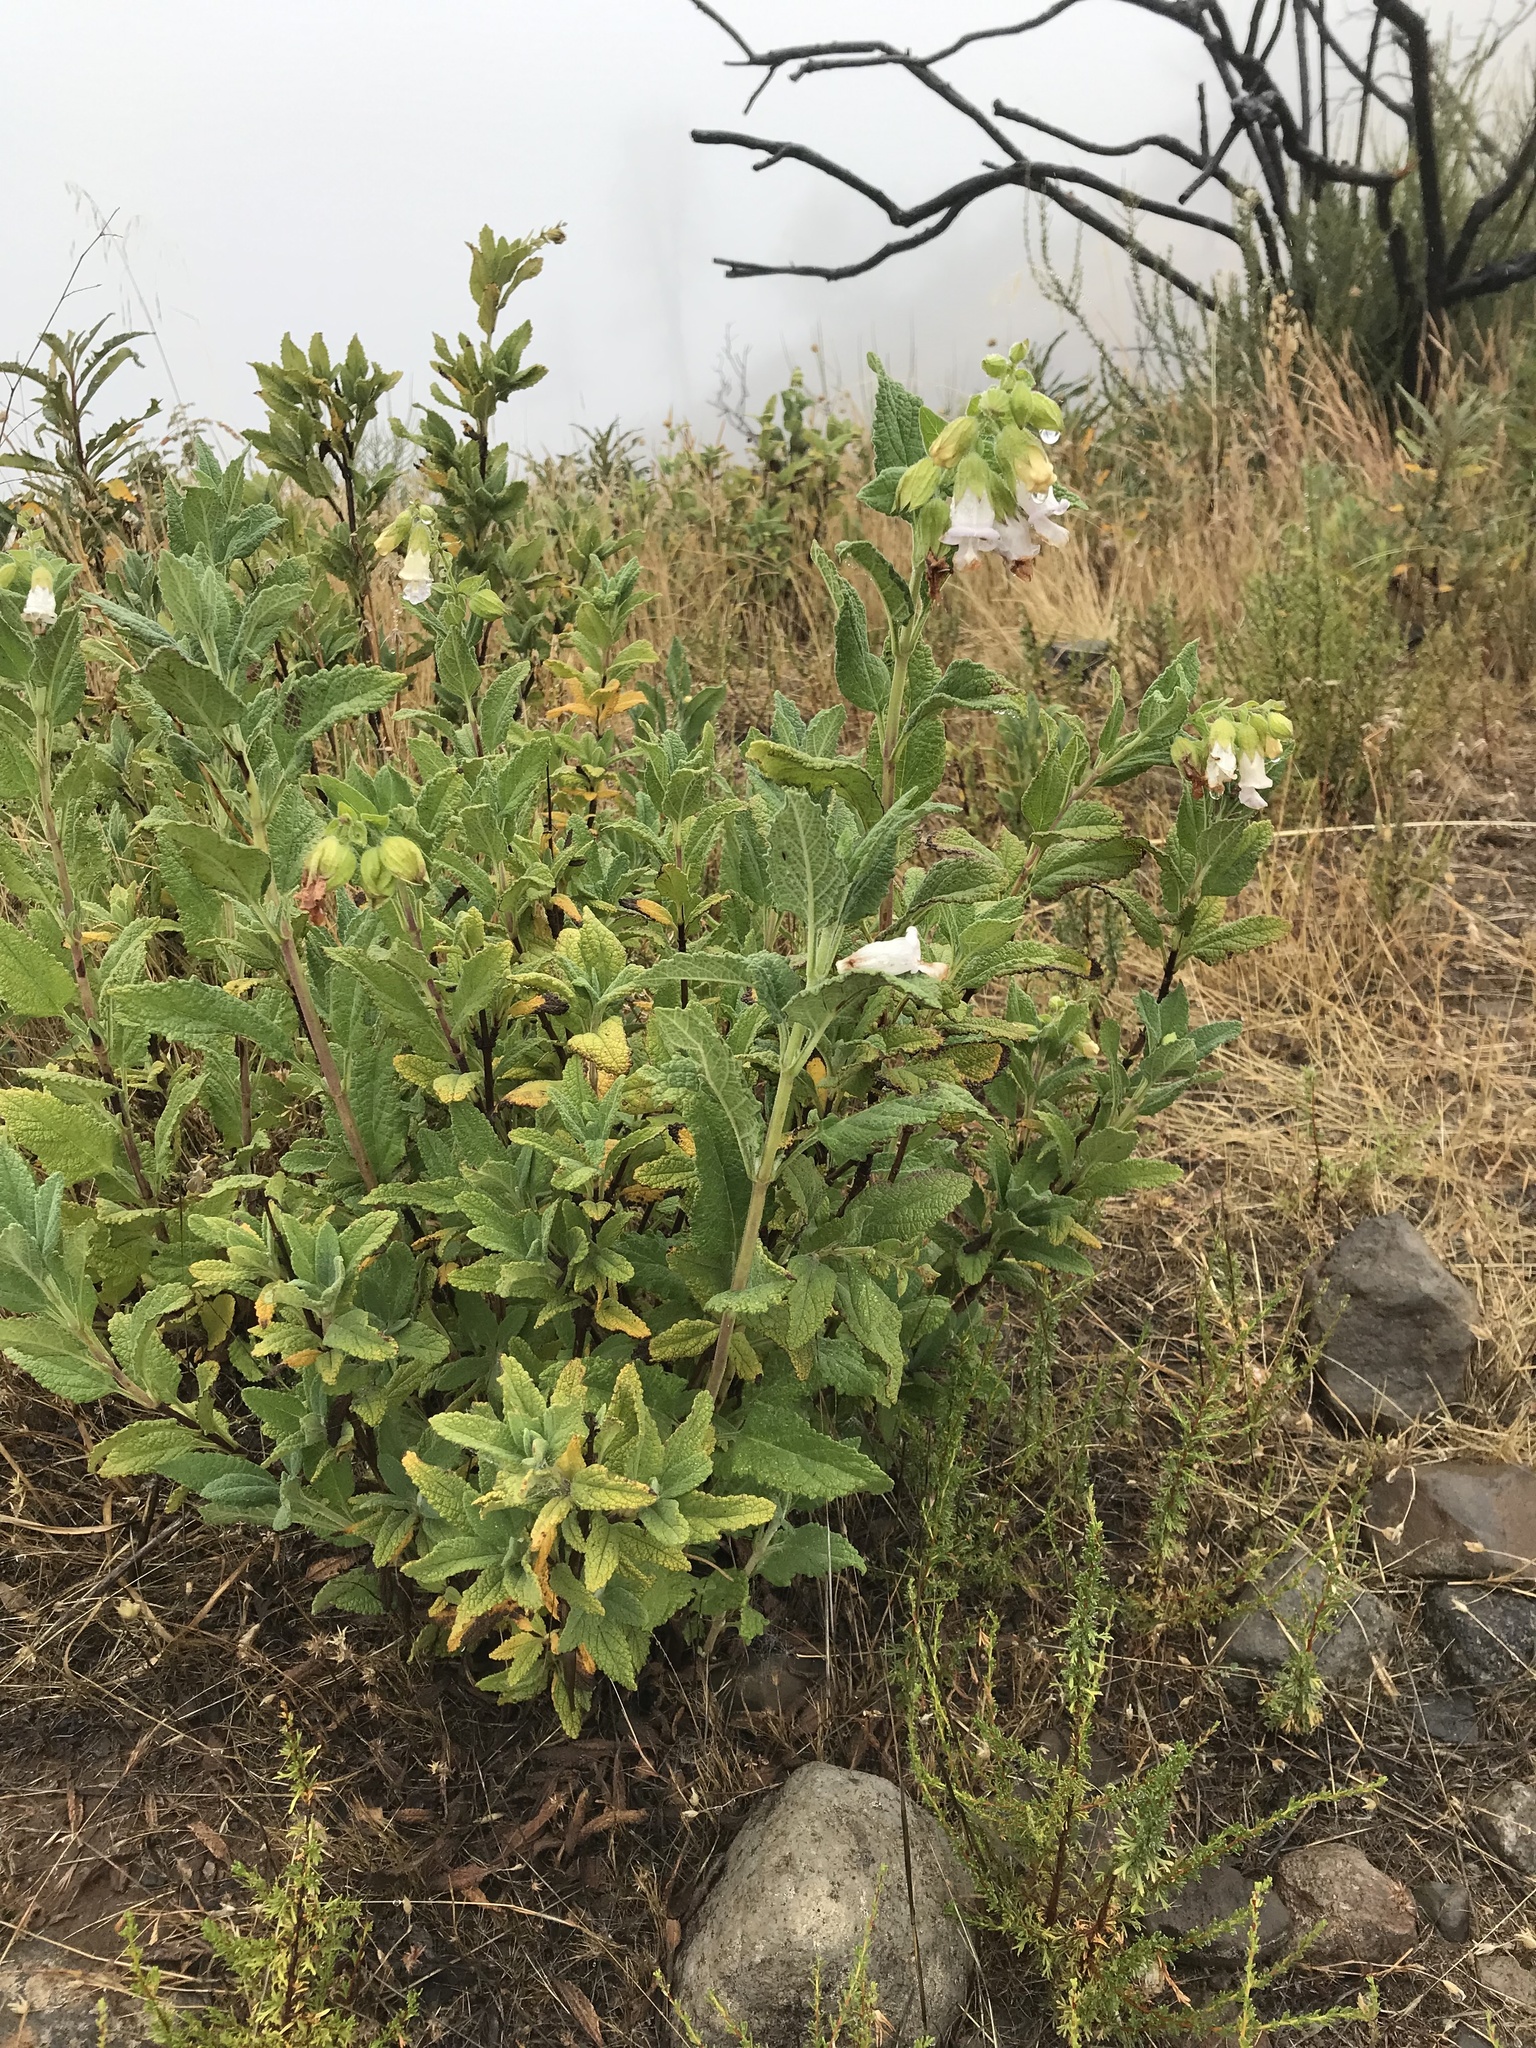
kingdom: Plantae
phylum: Tracheophyta
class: Magnoliopsida
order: Lamiales
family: Lamiaceae
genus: Lepechinia
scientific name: Lepechinia calycina
